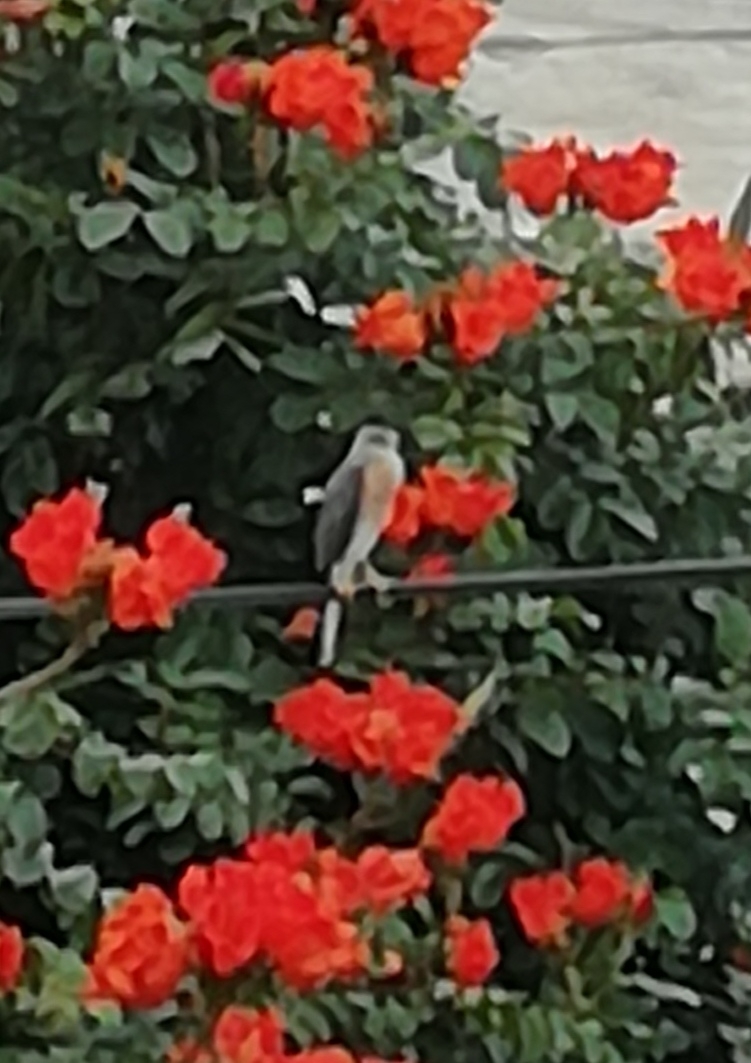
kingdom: Animalia
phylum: Chordata
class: Aves
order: Accipitriformes
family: Accipitridae
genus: Accipiter
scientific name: Accipiter badius
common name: Shikra
